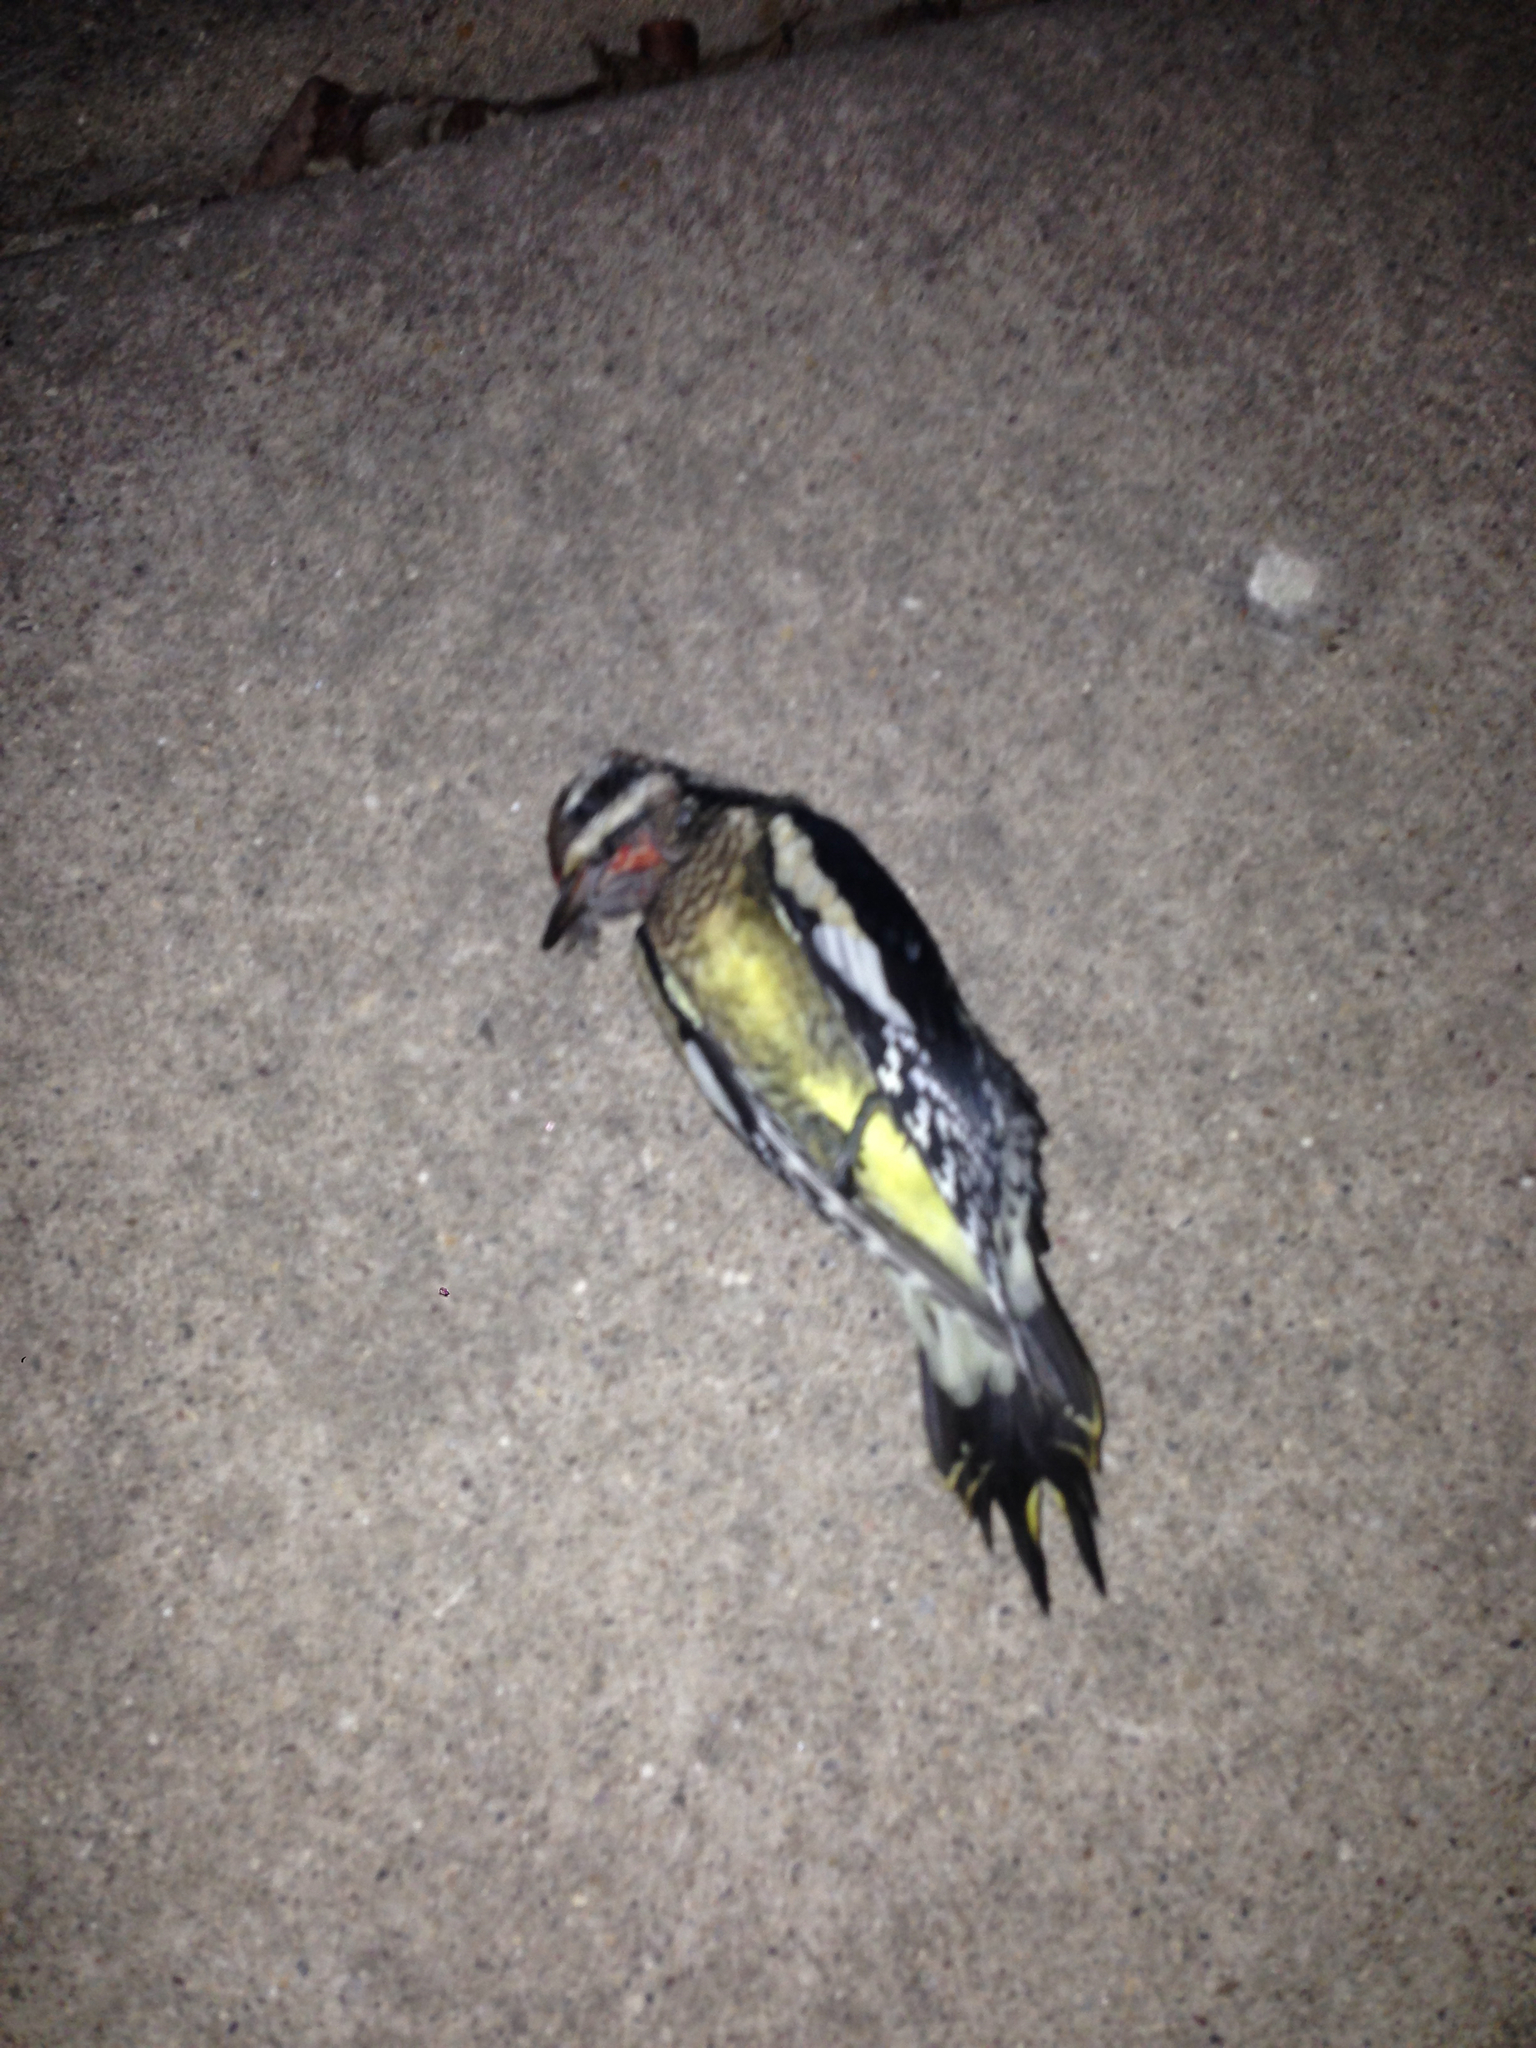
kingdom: Animalia
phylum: Chordata
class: Aves
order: Piciformes
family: Picidae
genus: Sphyrapicus
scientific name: Sphyrapicus varius
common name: Yellow-bellied sapsucker
